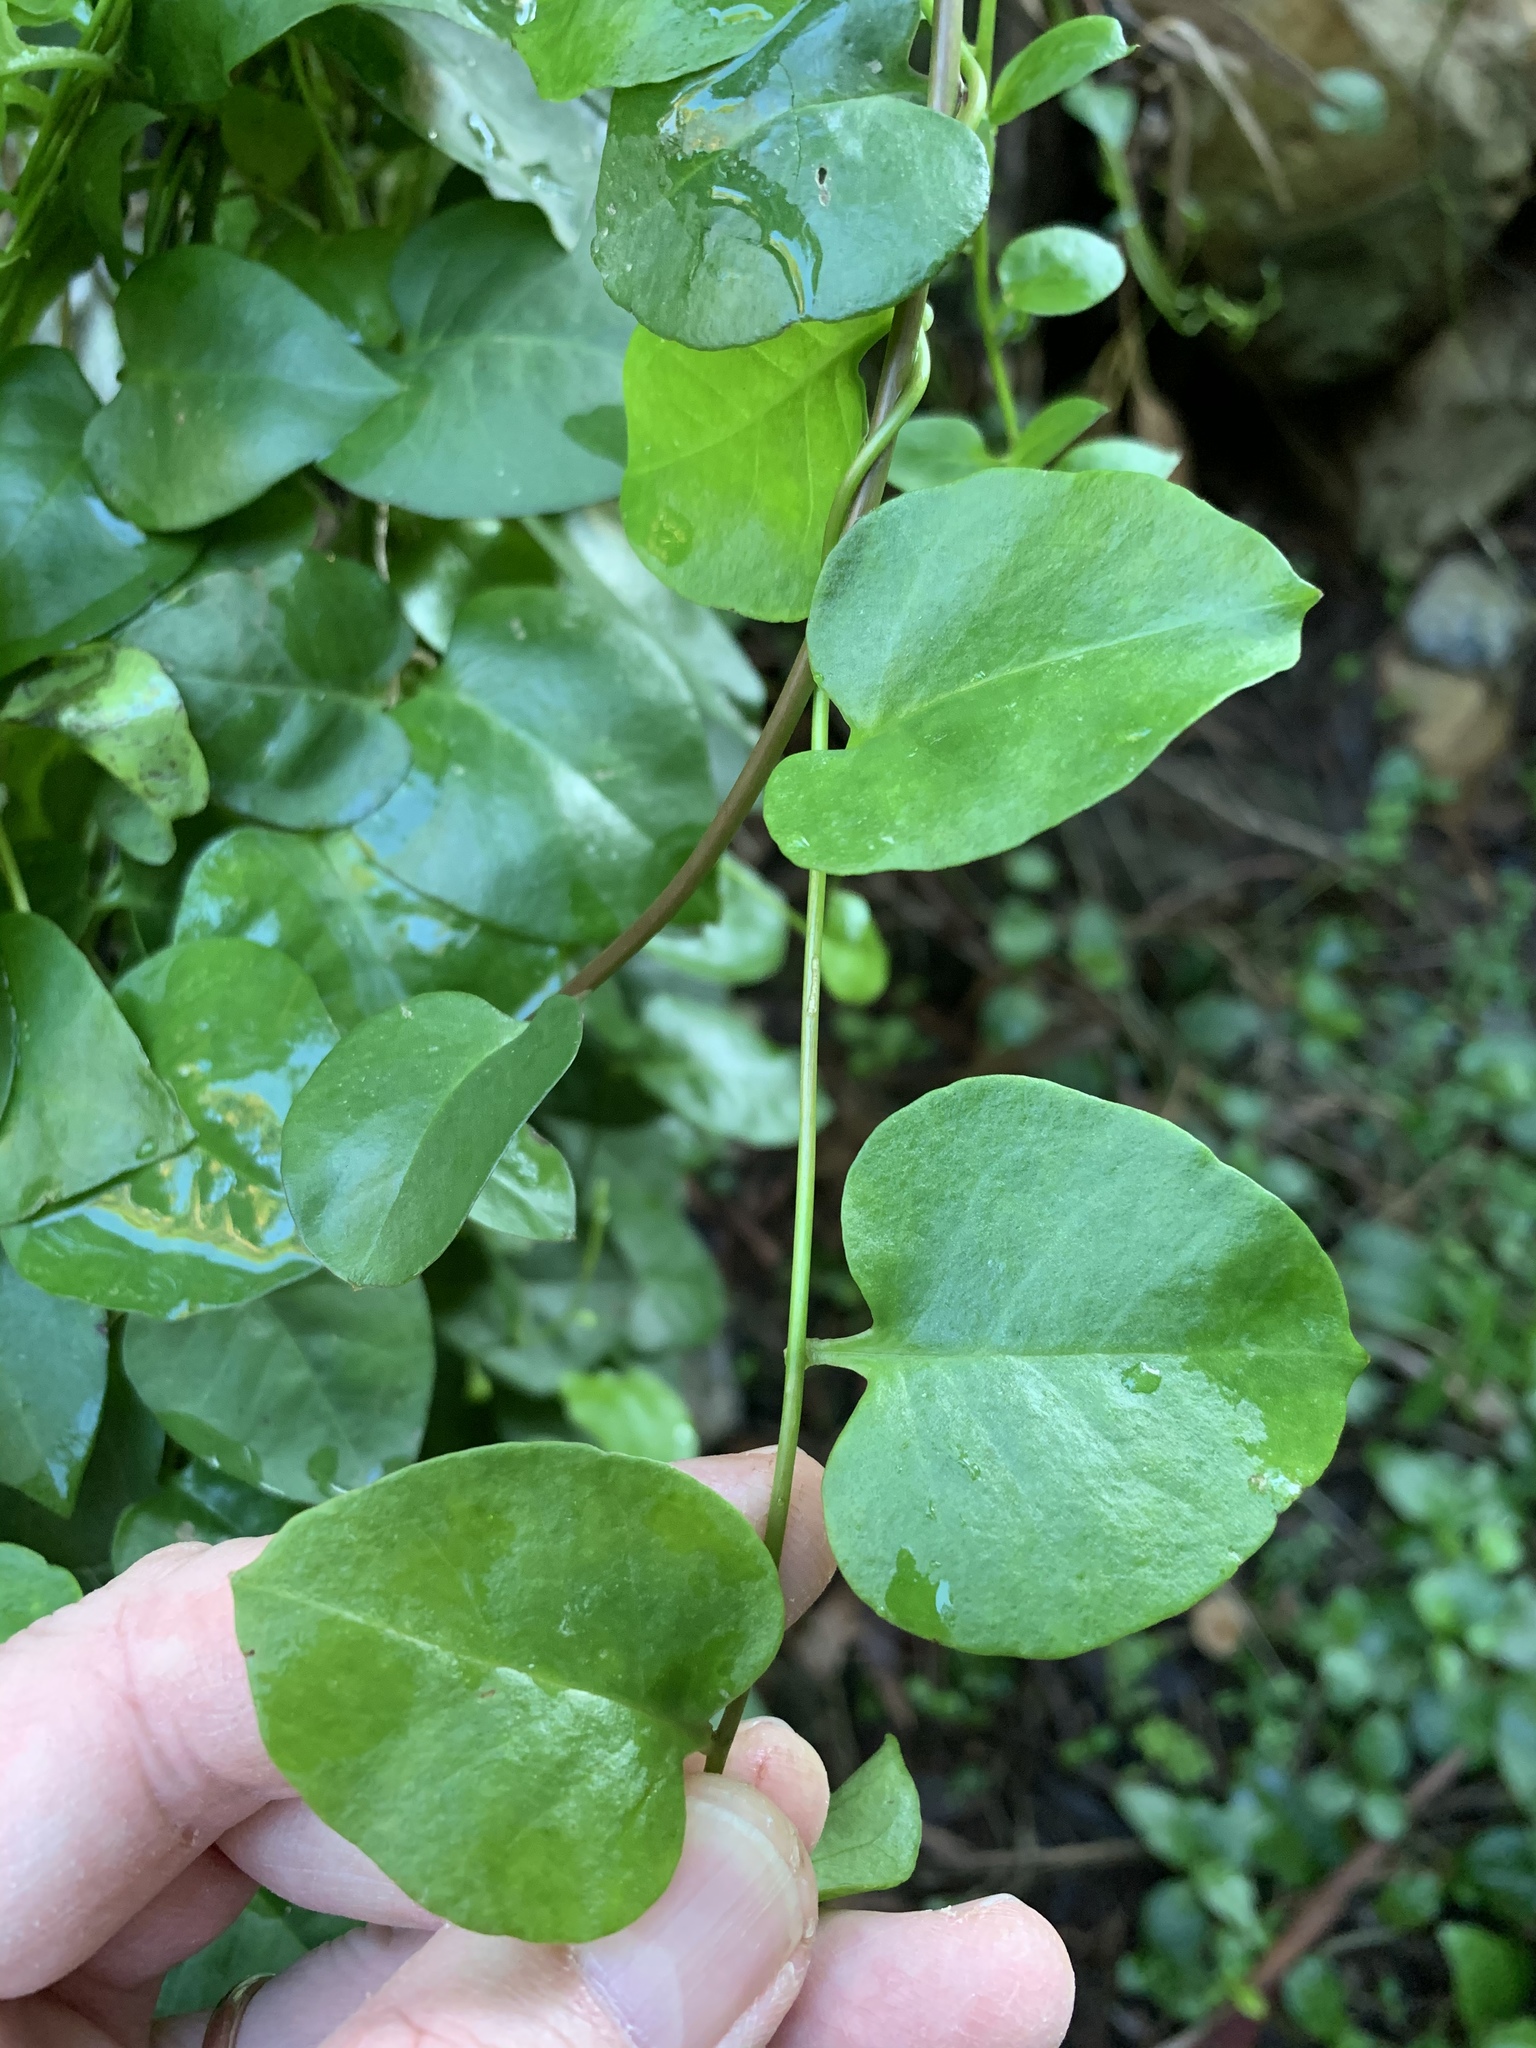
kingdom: Plantae
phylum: Tracheophyta
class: Magnoliopsida
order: Caryophyllales
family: Basellaceae
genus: Anredera
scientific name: Anredera cordifolia
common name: Heartleaf madeiravine
